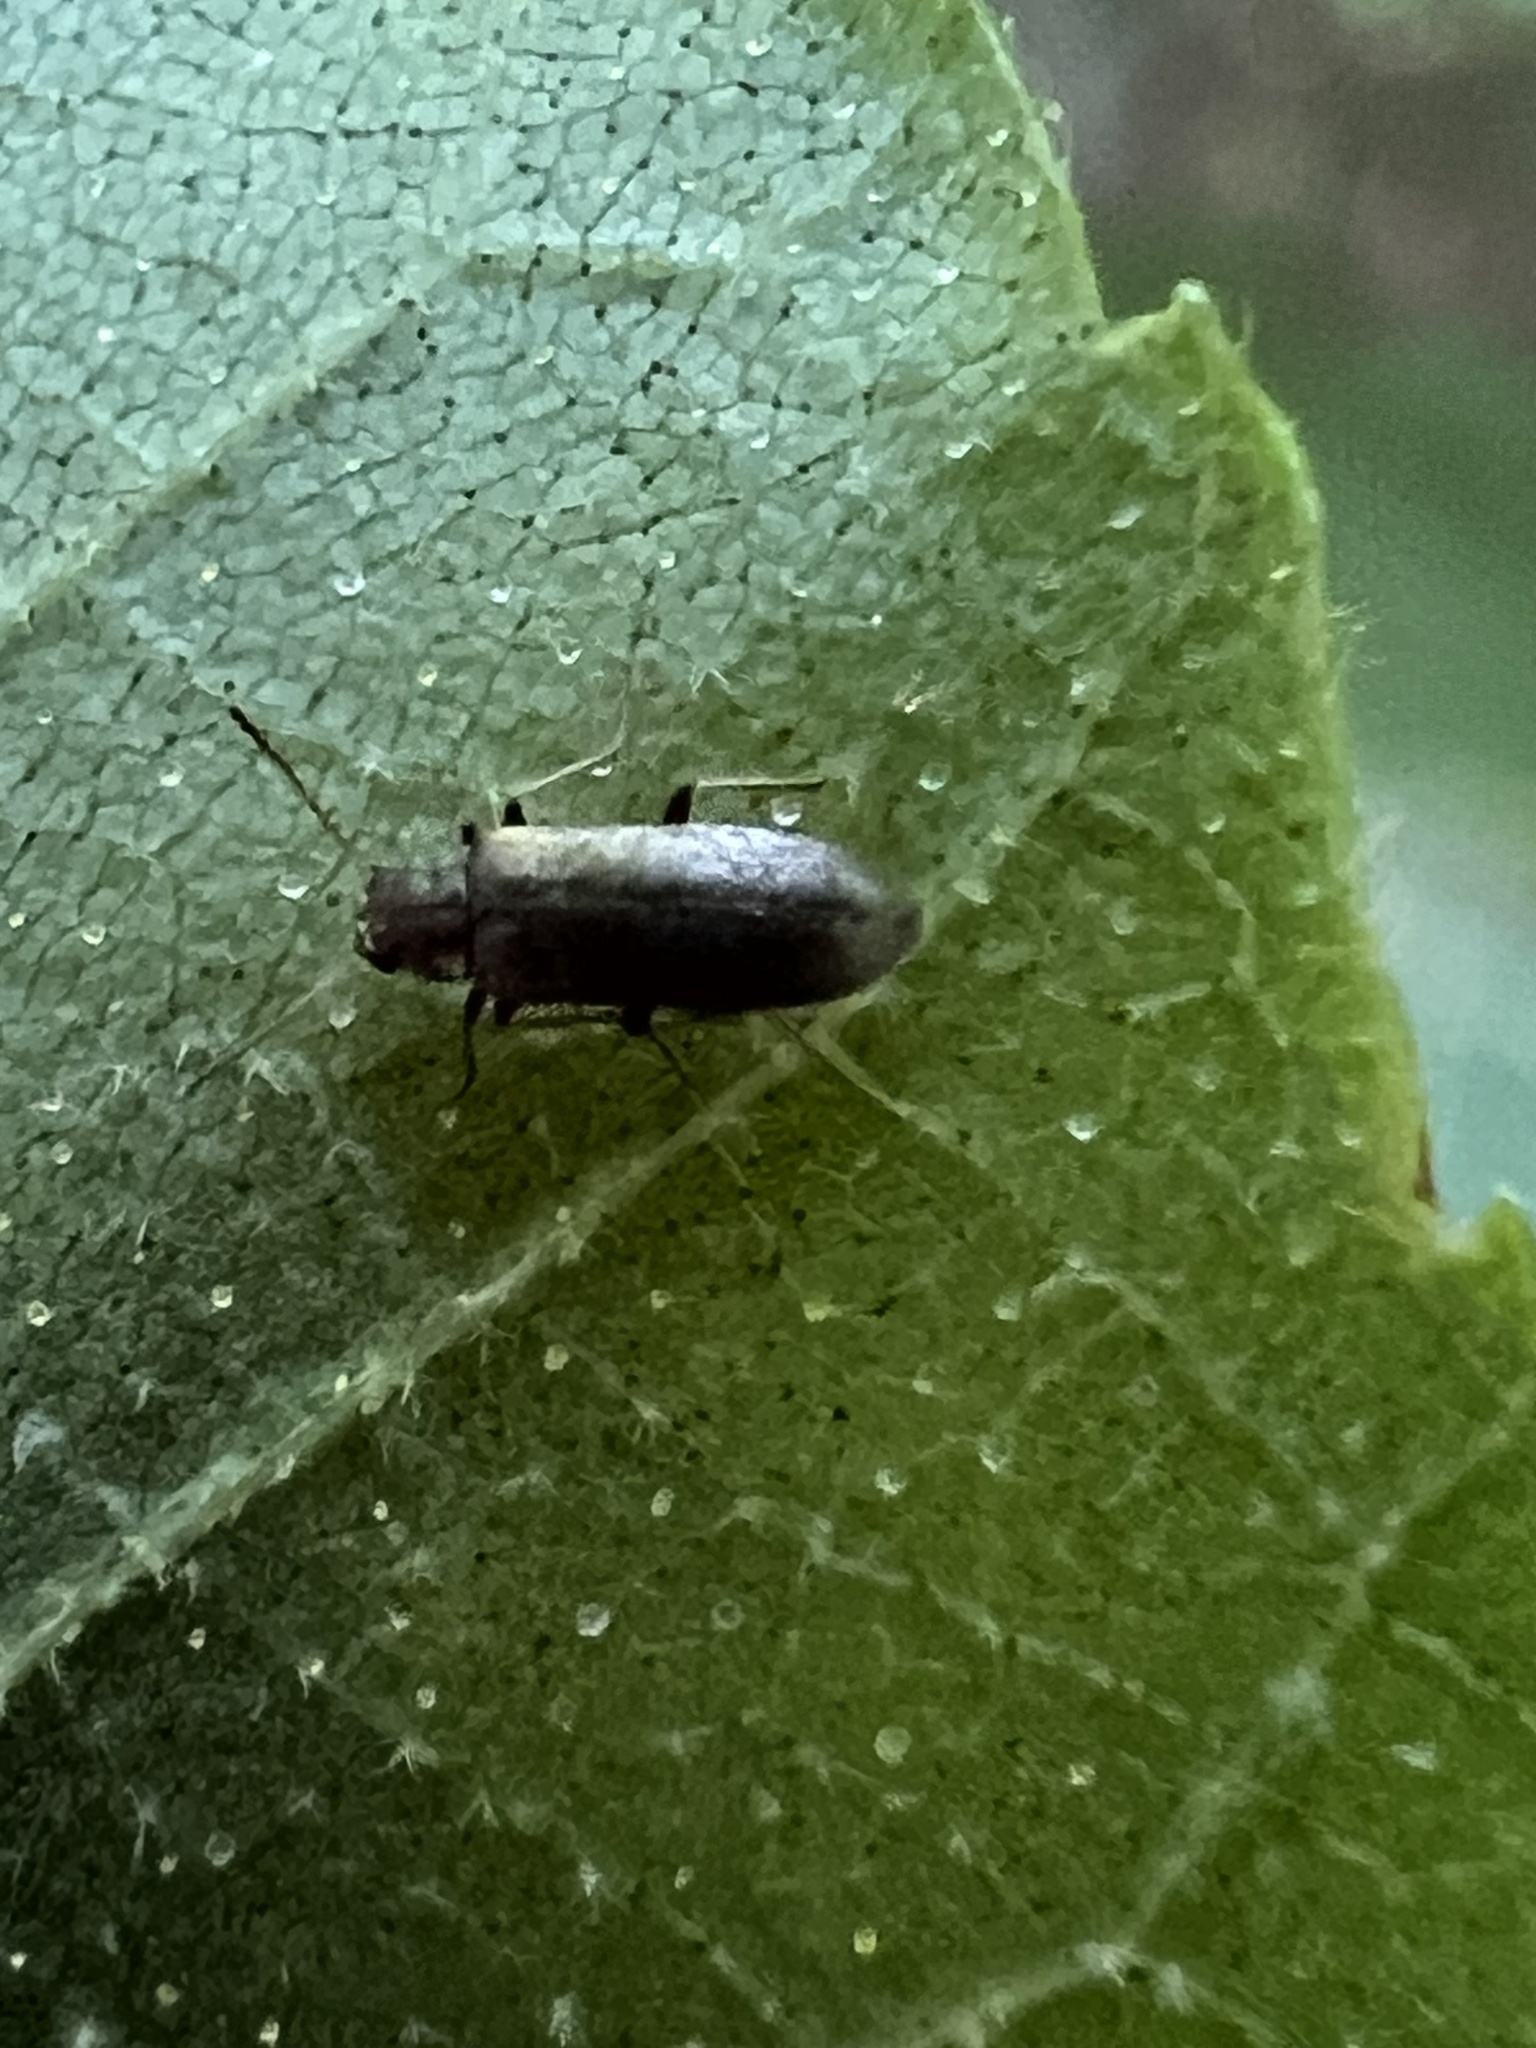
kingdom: Animalia
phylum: Arthropoda
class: Insecta
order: Coleoptera
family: Melandryidae
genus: Microtonus
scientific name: Microtonus sericans
